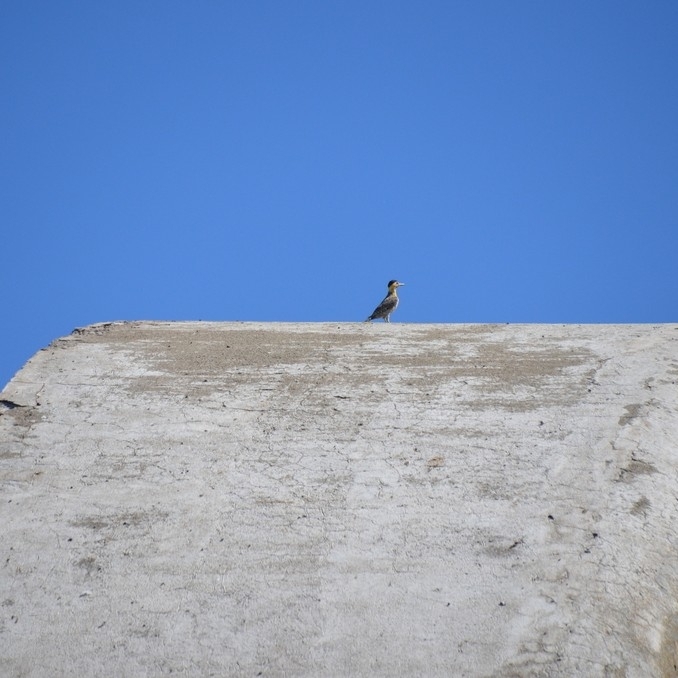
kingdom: Animalia
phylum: Chordata
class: Aves
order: Piciformes
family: Picidae
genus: Colaptes
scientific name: Colaptes campestris
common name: Campo flicker
